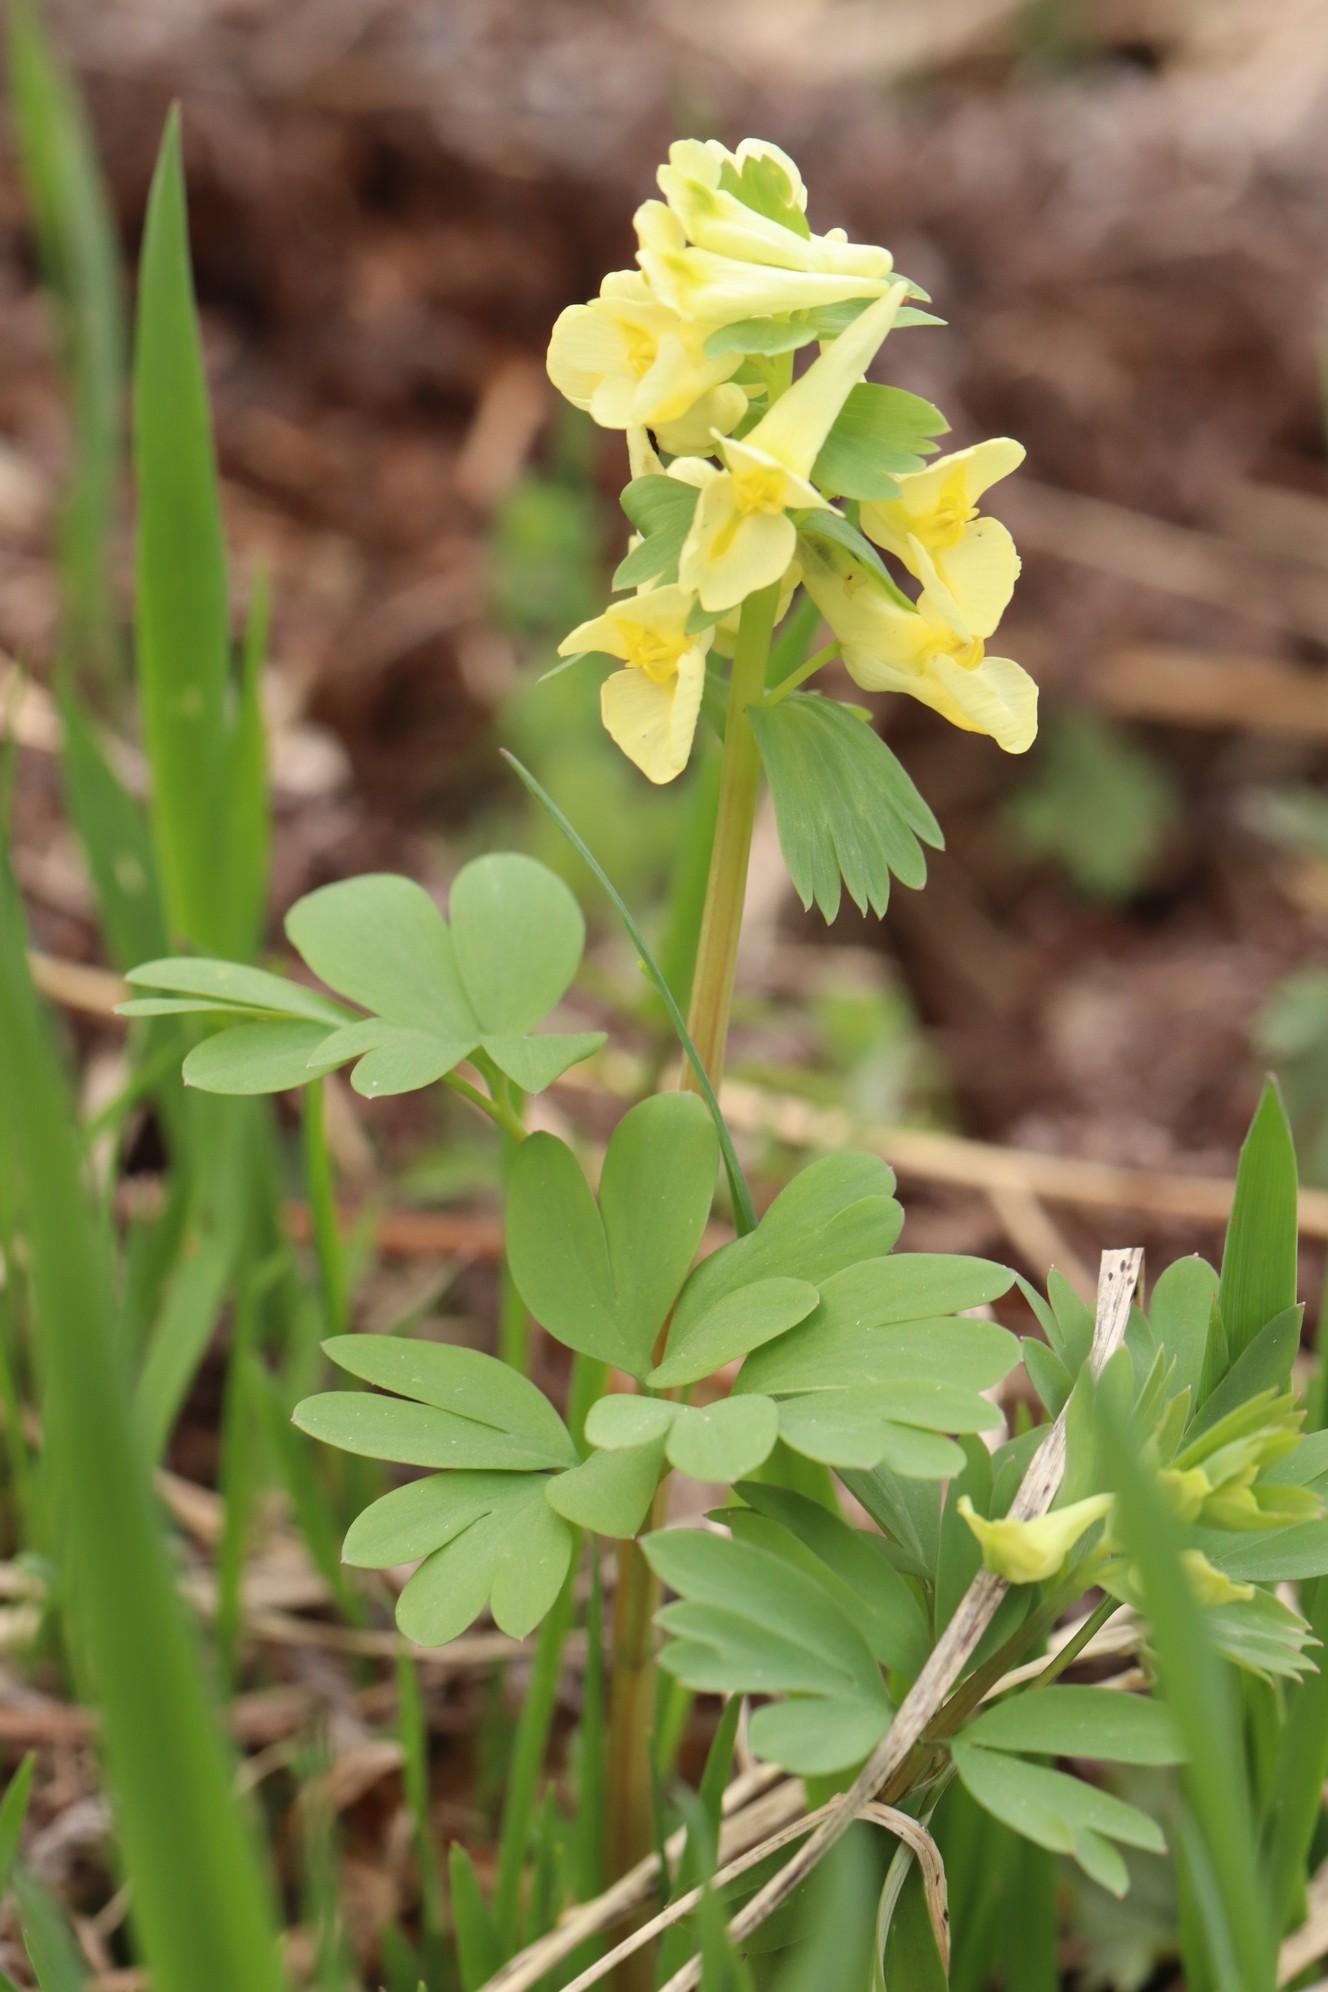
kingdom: Plantae
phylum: Tracheophyta
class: Magnoliopsida
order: Ranunculales
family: Papaveraceae
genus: Corydalis
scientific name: Corydalis bracteata
